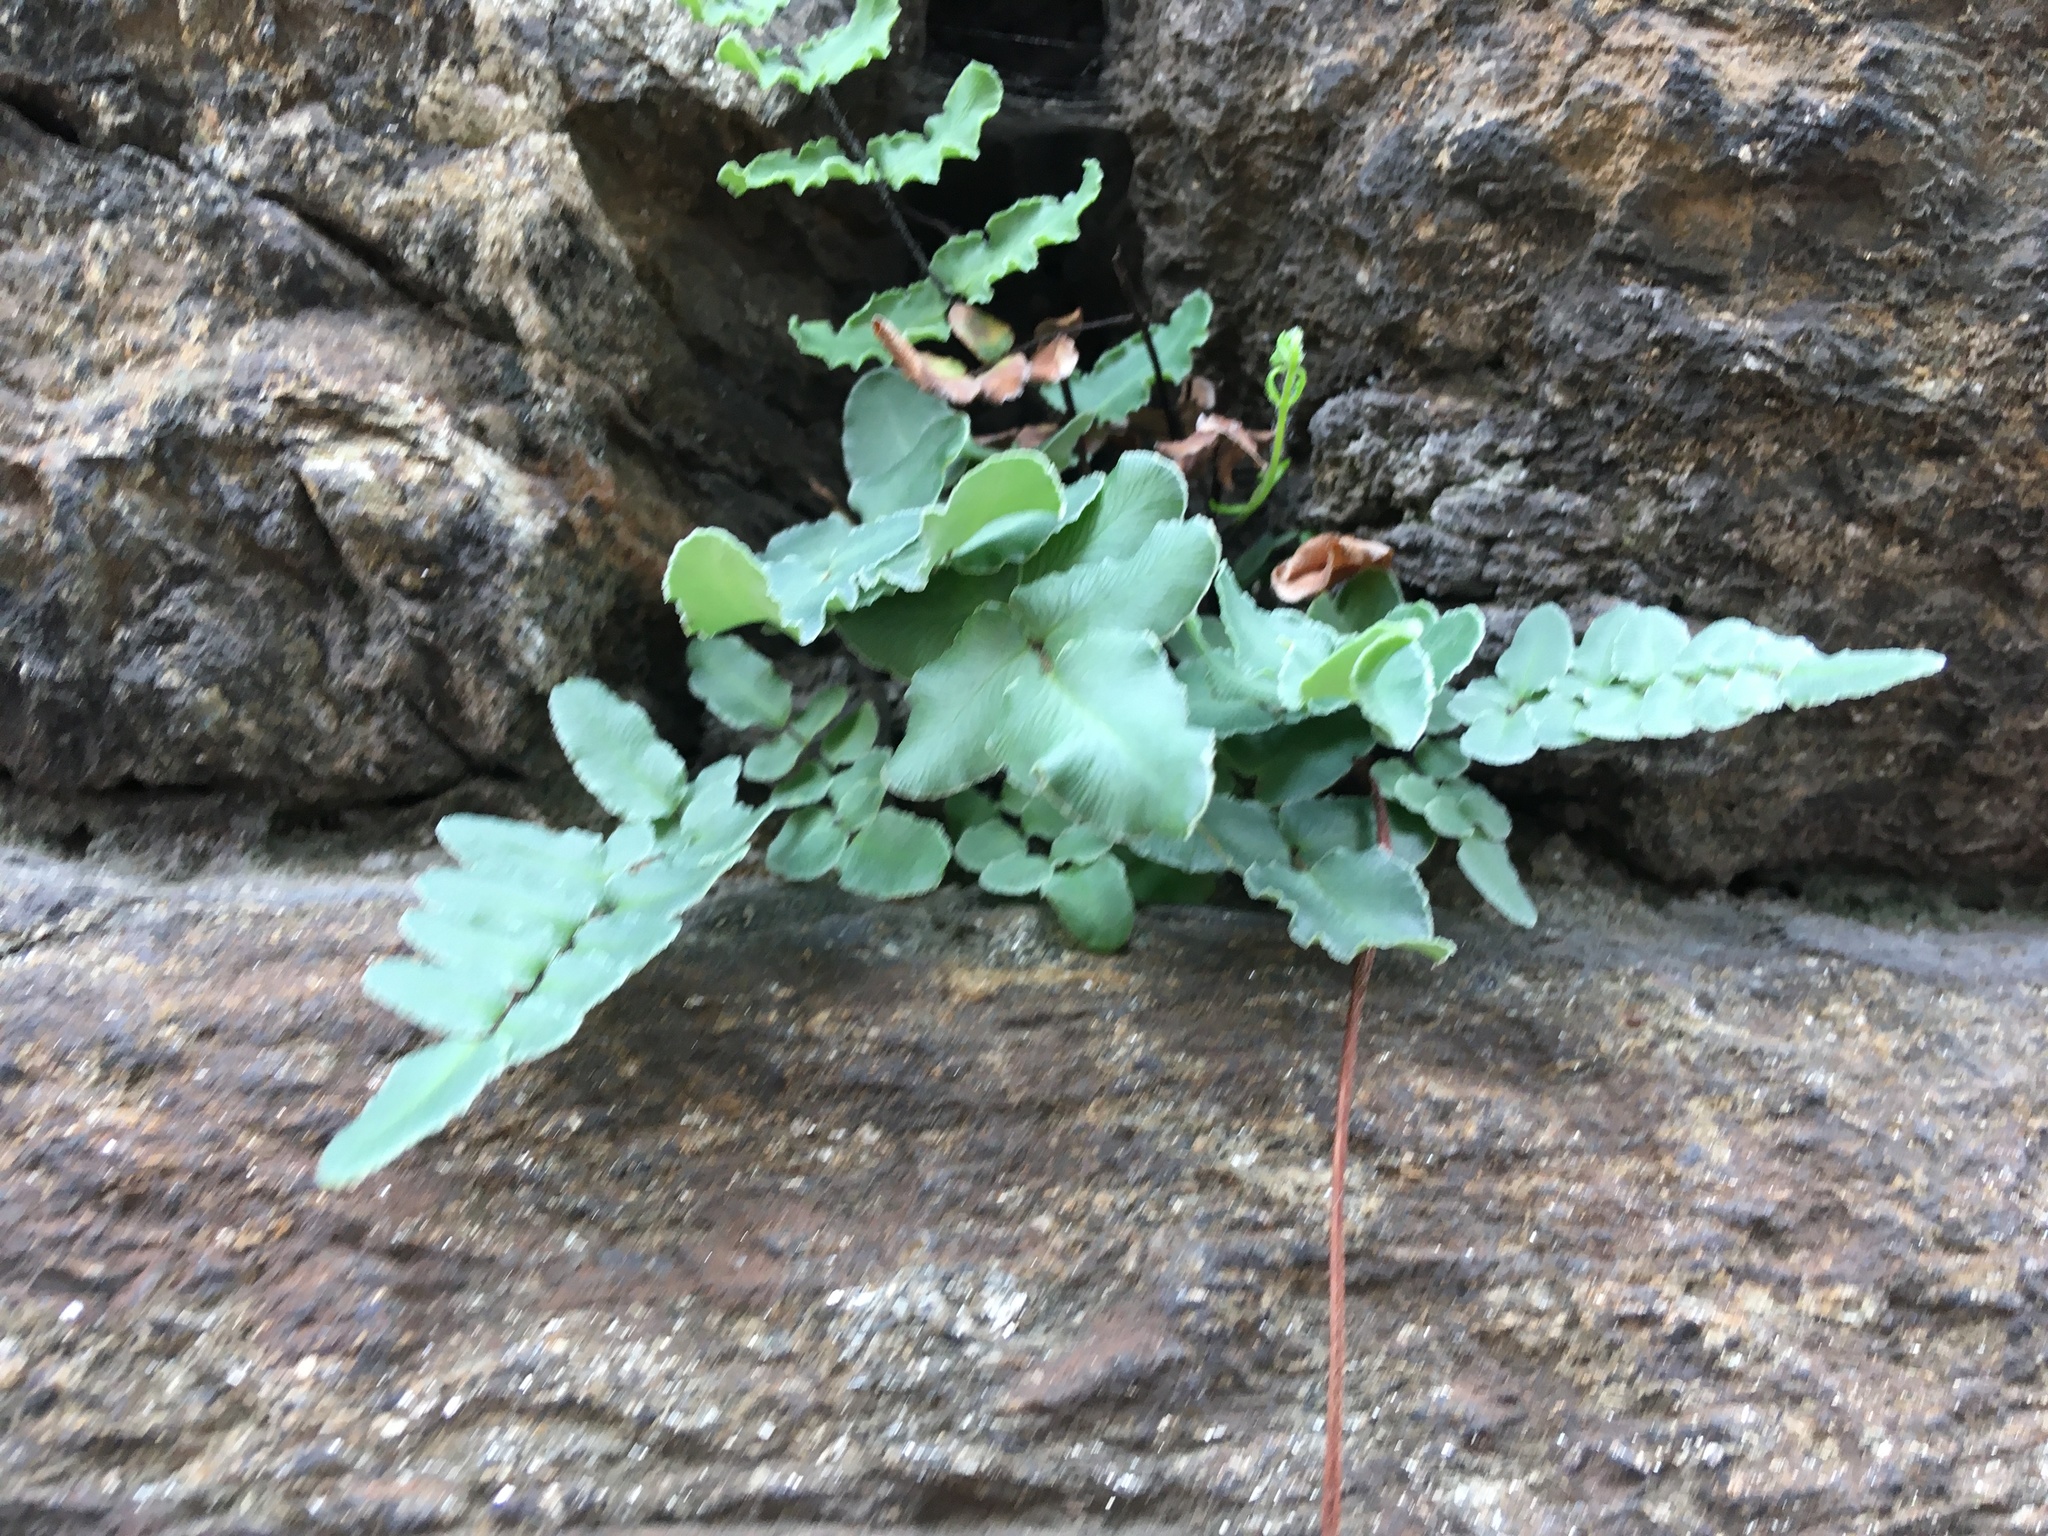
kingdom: Plantae
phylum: Tracheophyta
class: Polypodiopsida
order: Polypodiales
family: Pteridaceae
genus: Pellaea
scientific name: Pellaea atropurpurea
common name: Hairy cliffbrake
